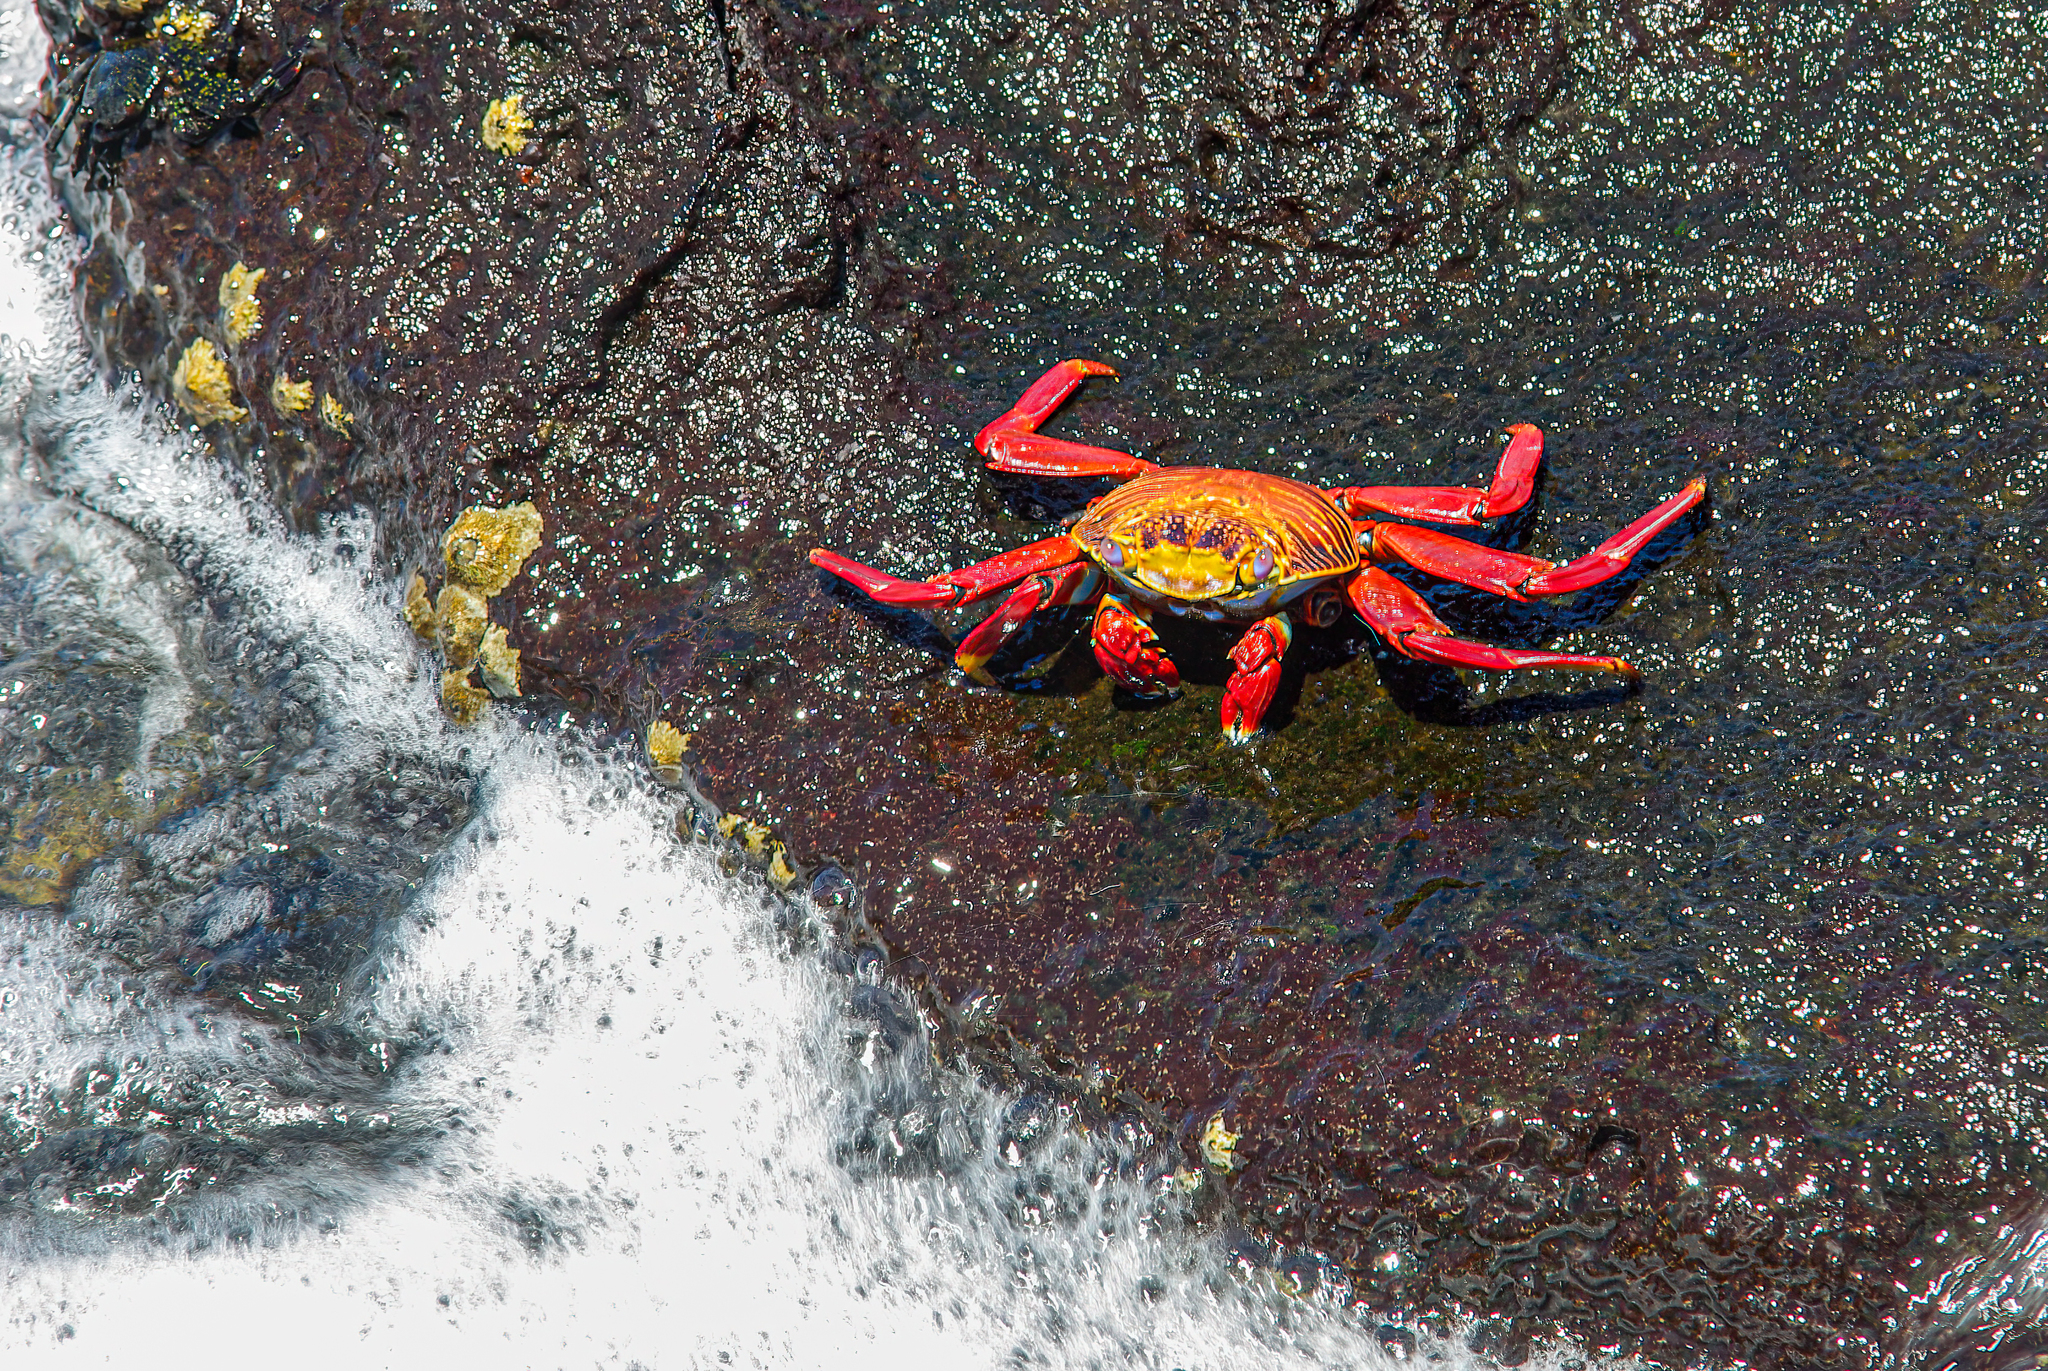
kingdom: Animalia
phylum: Arthropoda
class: Malacostraca
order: Decapoda
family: Grapsidae
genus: Grapsus
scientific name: Grapsus grapsus
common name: Sally lightfoot
